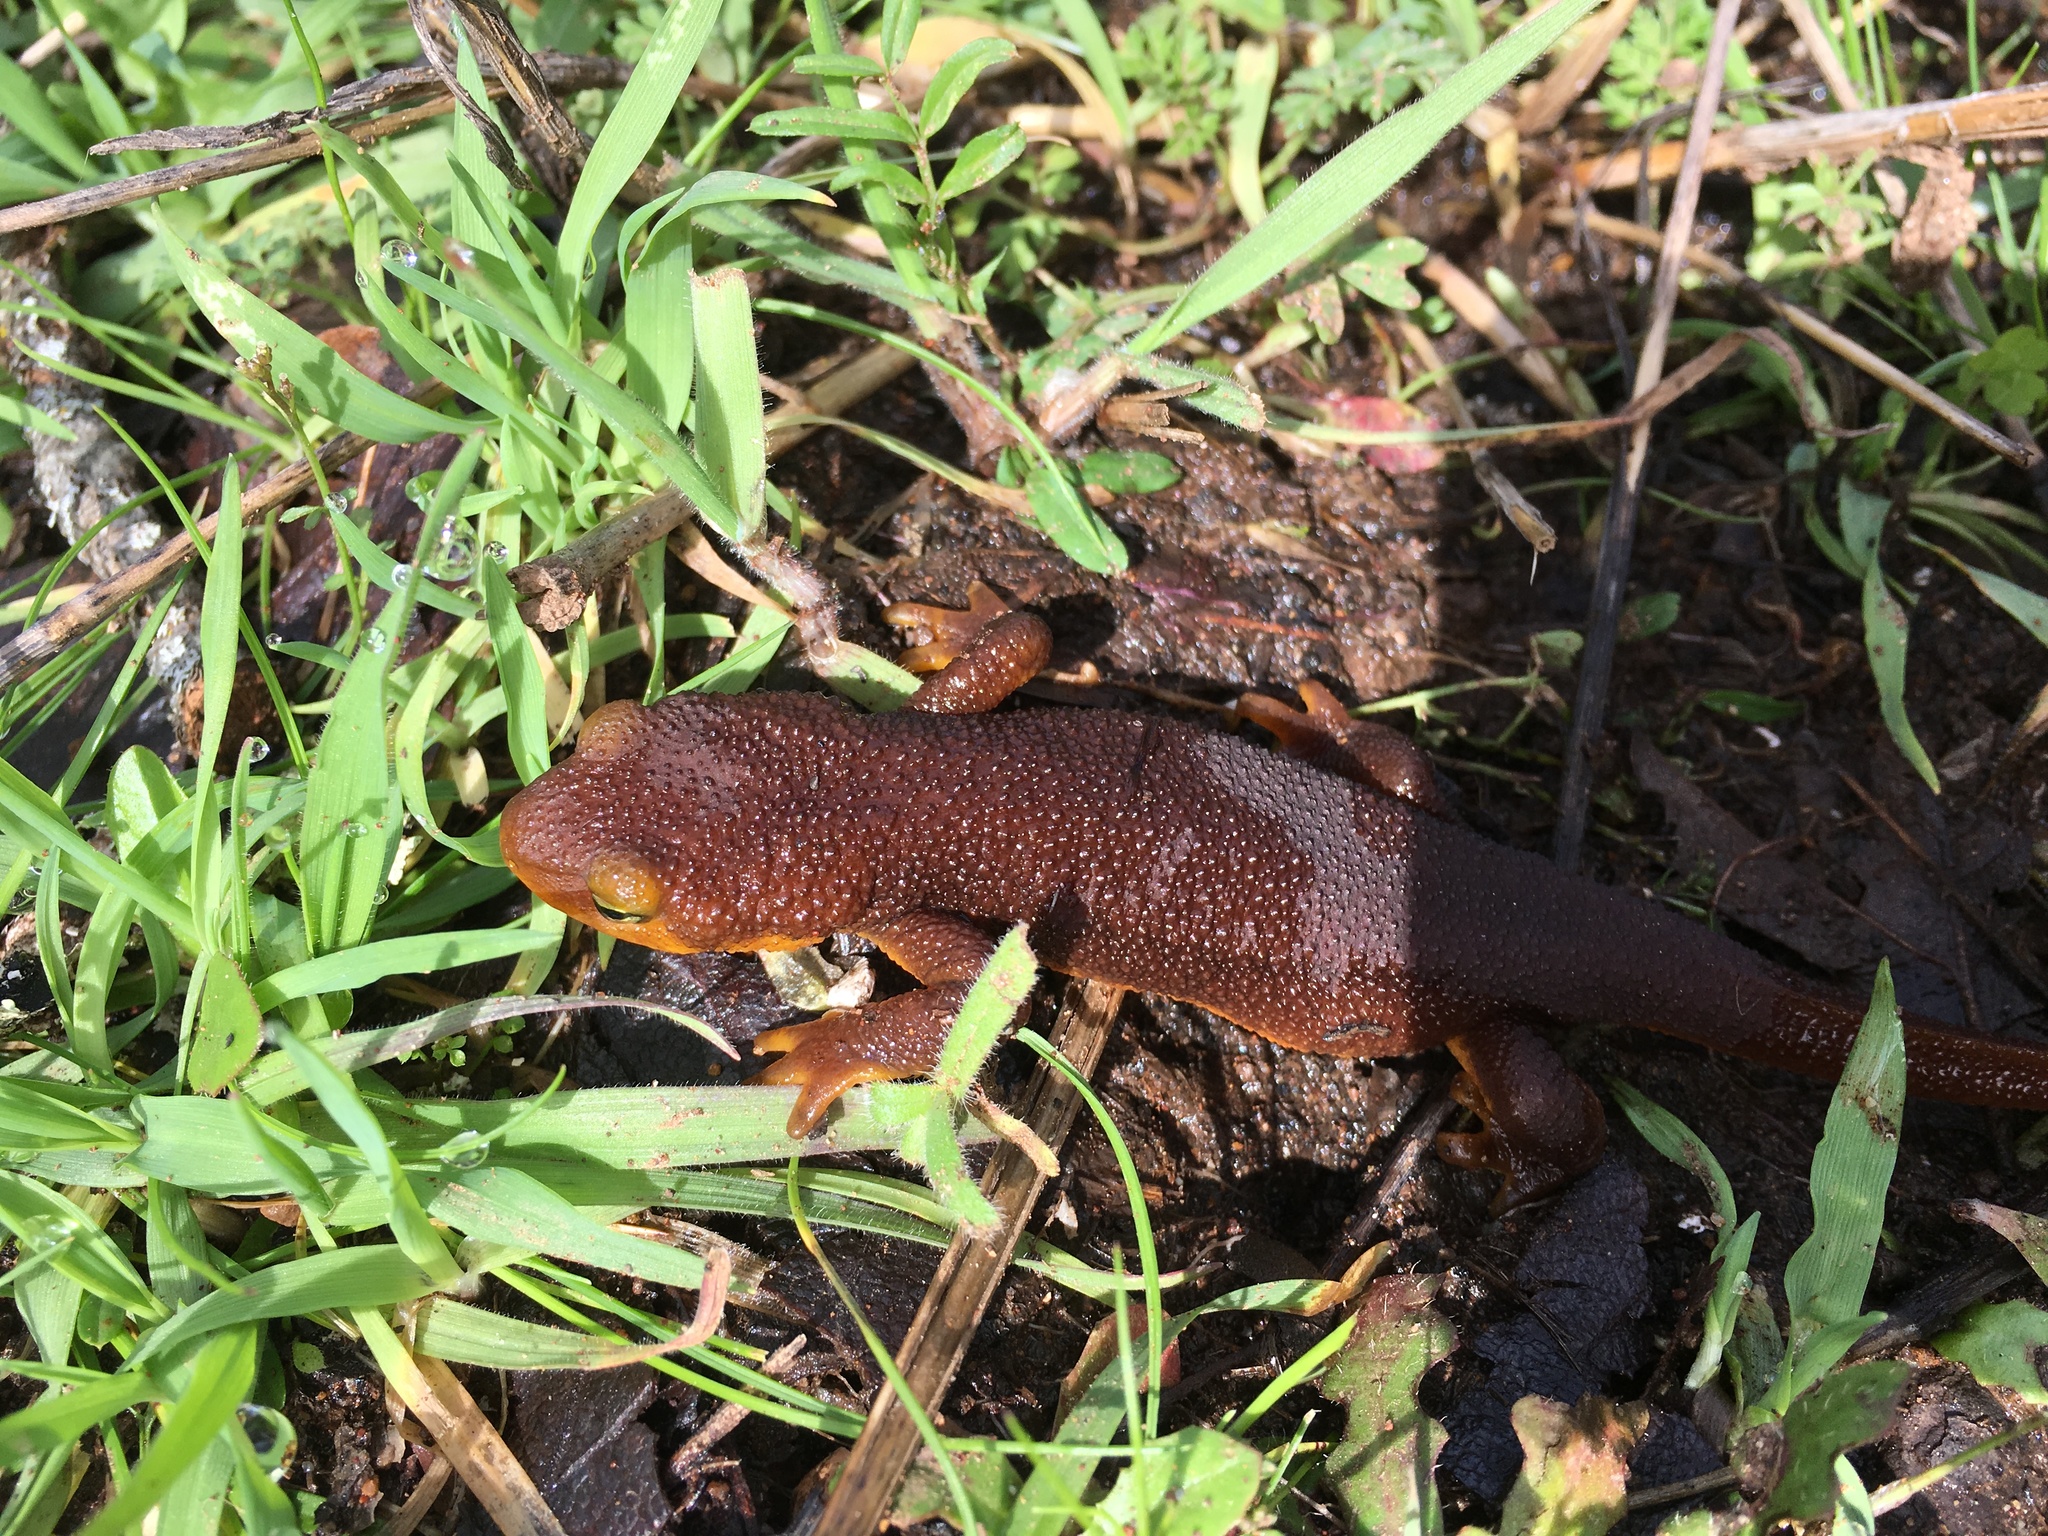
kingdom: Animalia
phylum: Chordata
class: Amphibia
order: Caudata
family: Salamandridae
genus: Taricha
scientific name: Taricha torosa
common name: California newt
